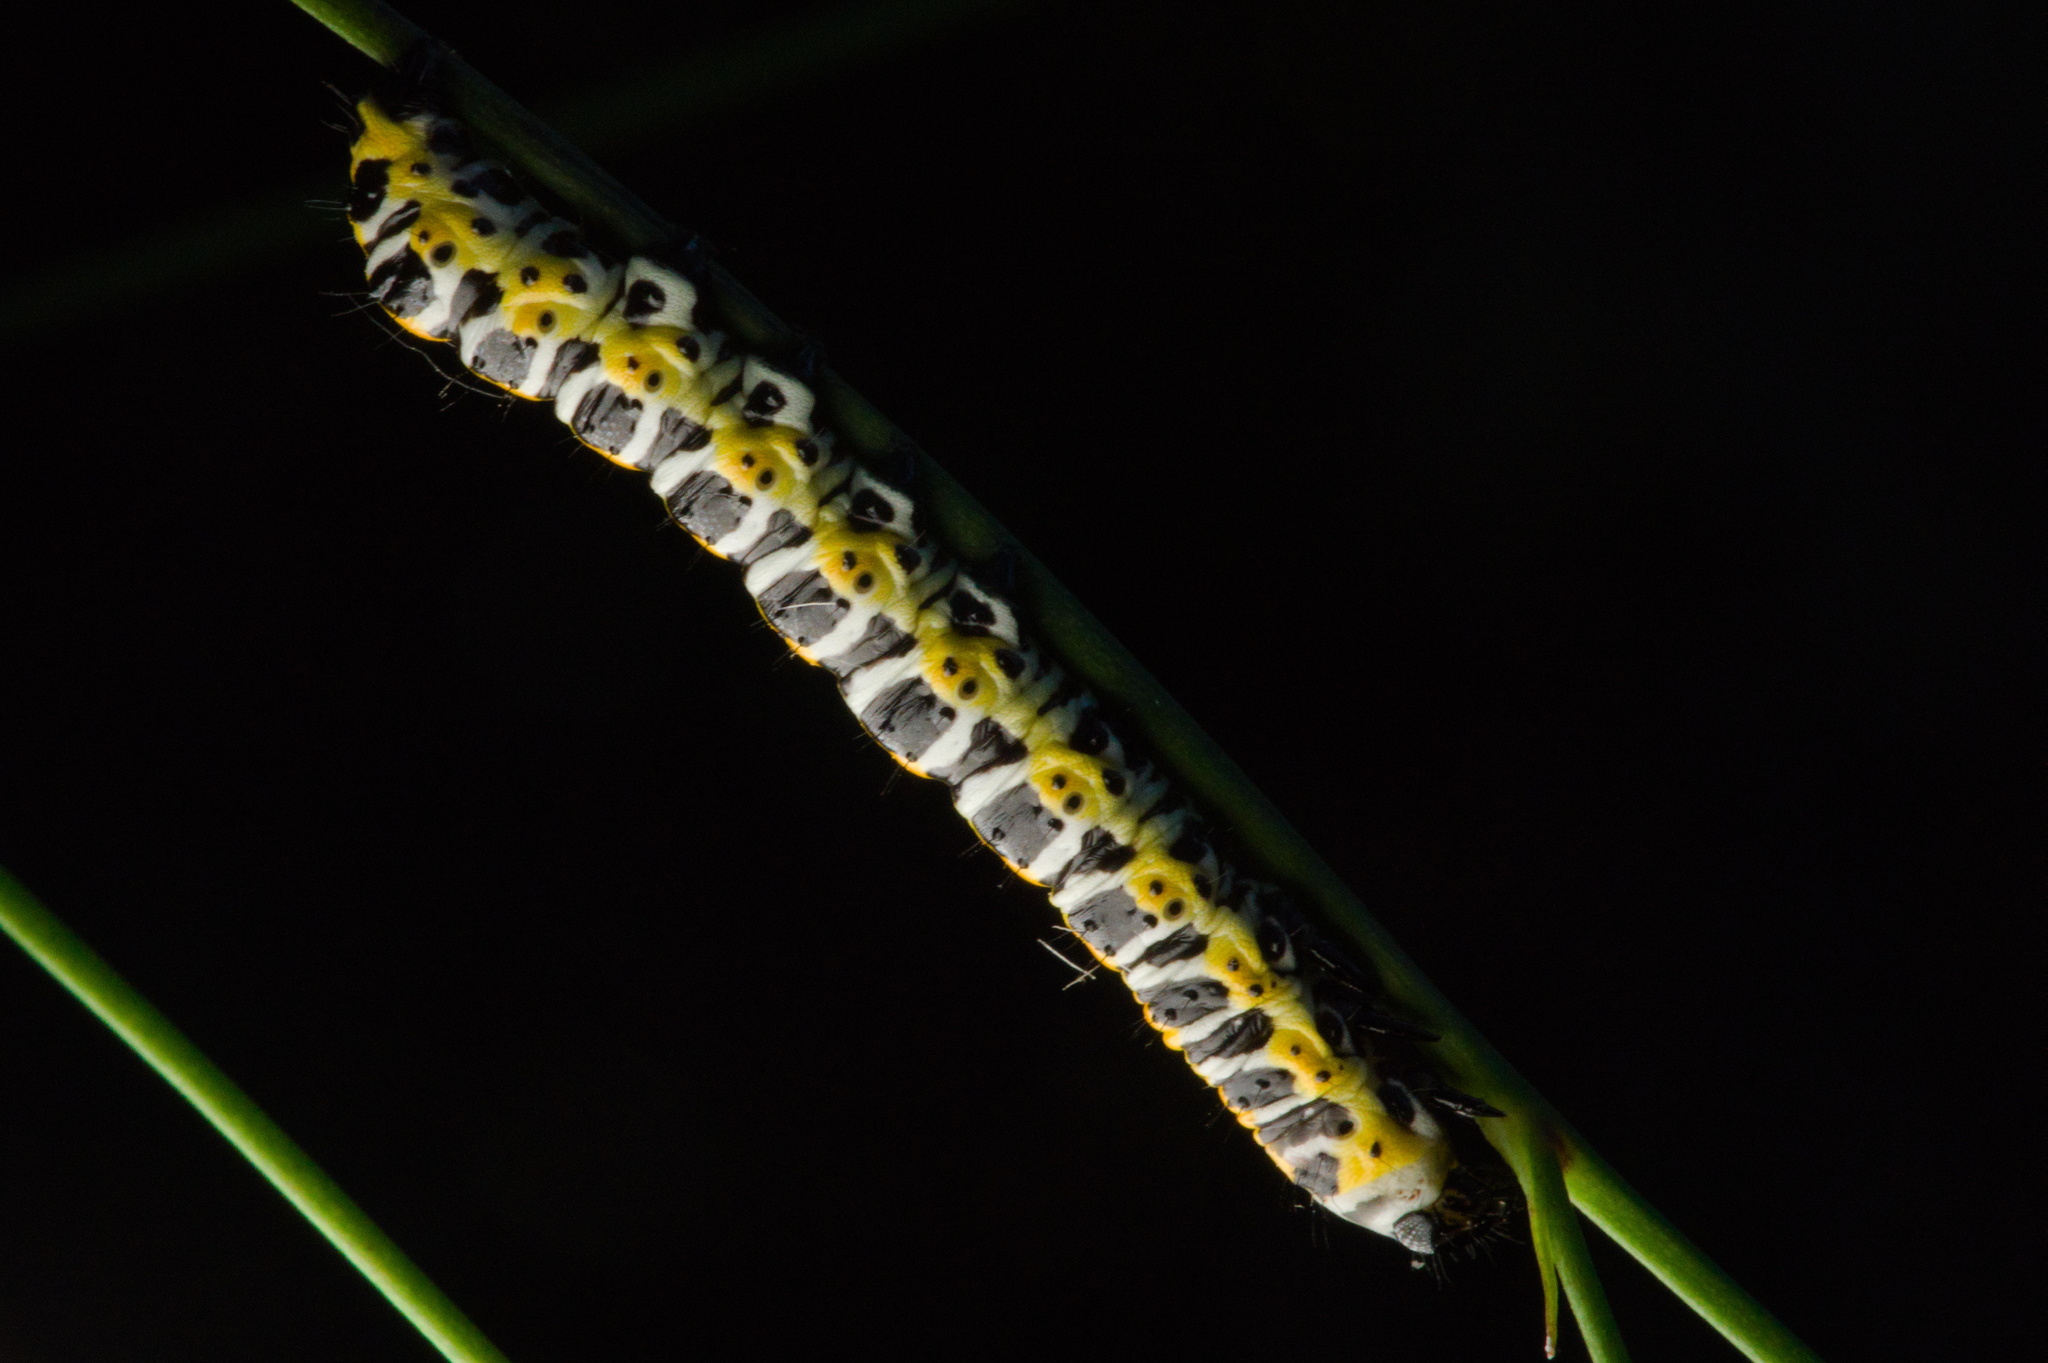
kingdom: Animalia
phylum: Arthropoda
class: Insecta
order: Lepidoptera
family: Noctuidae
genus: Cucullia
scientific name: Cucullia lactucae
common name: Lettuce shark
